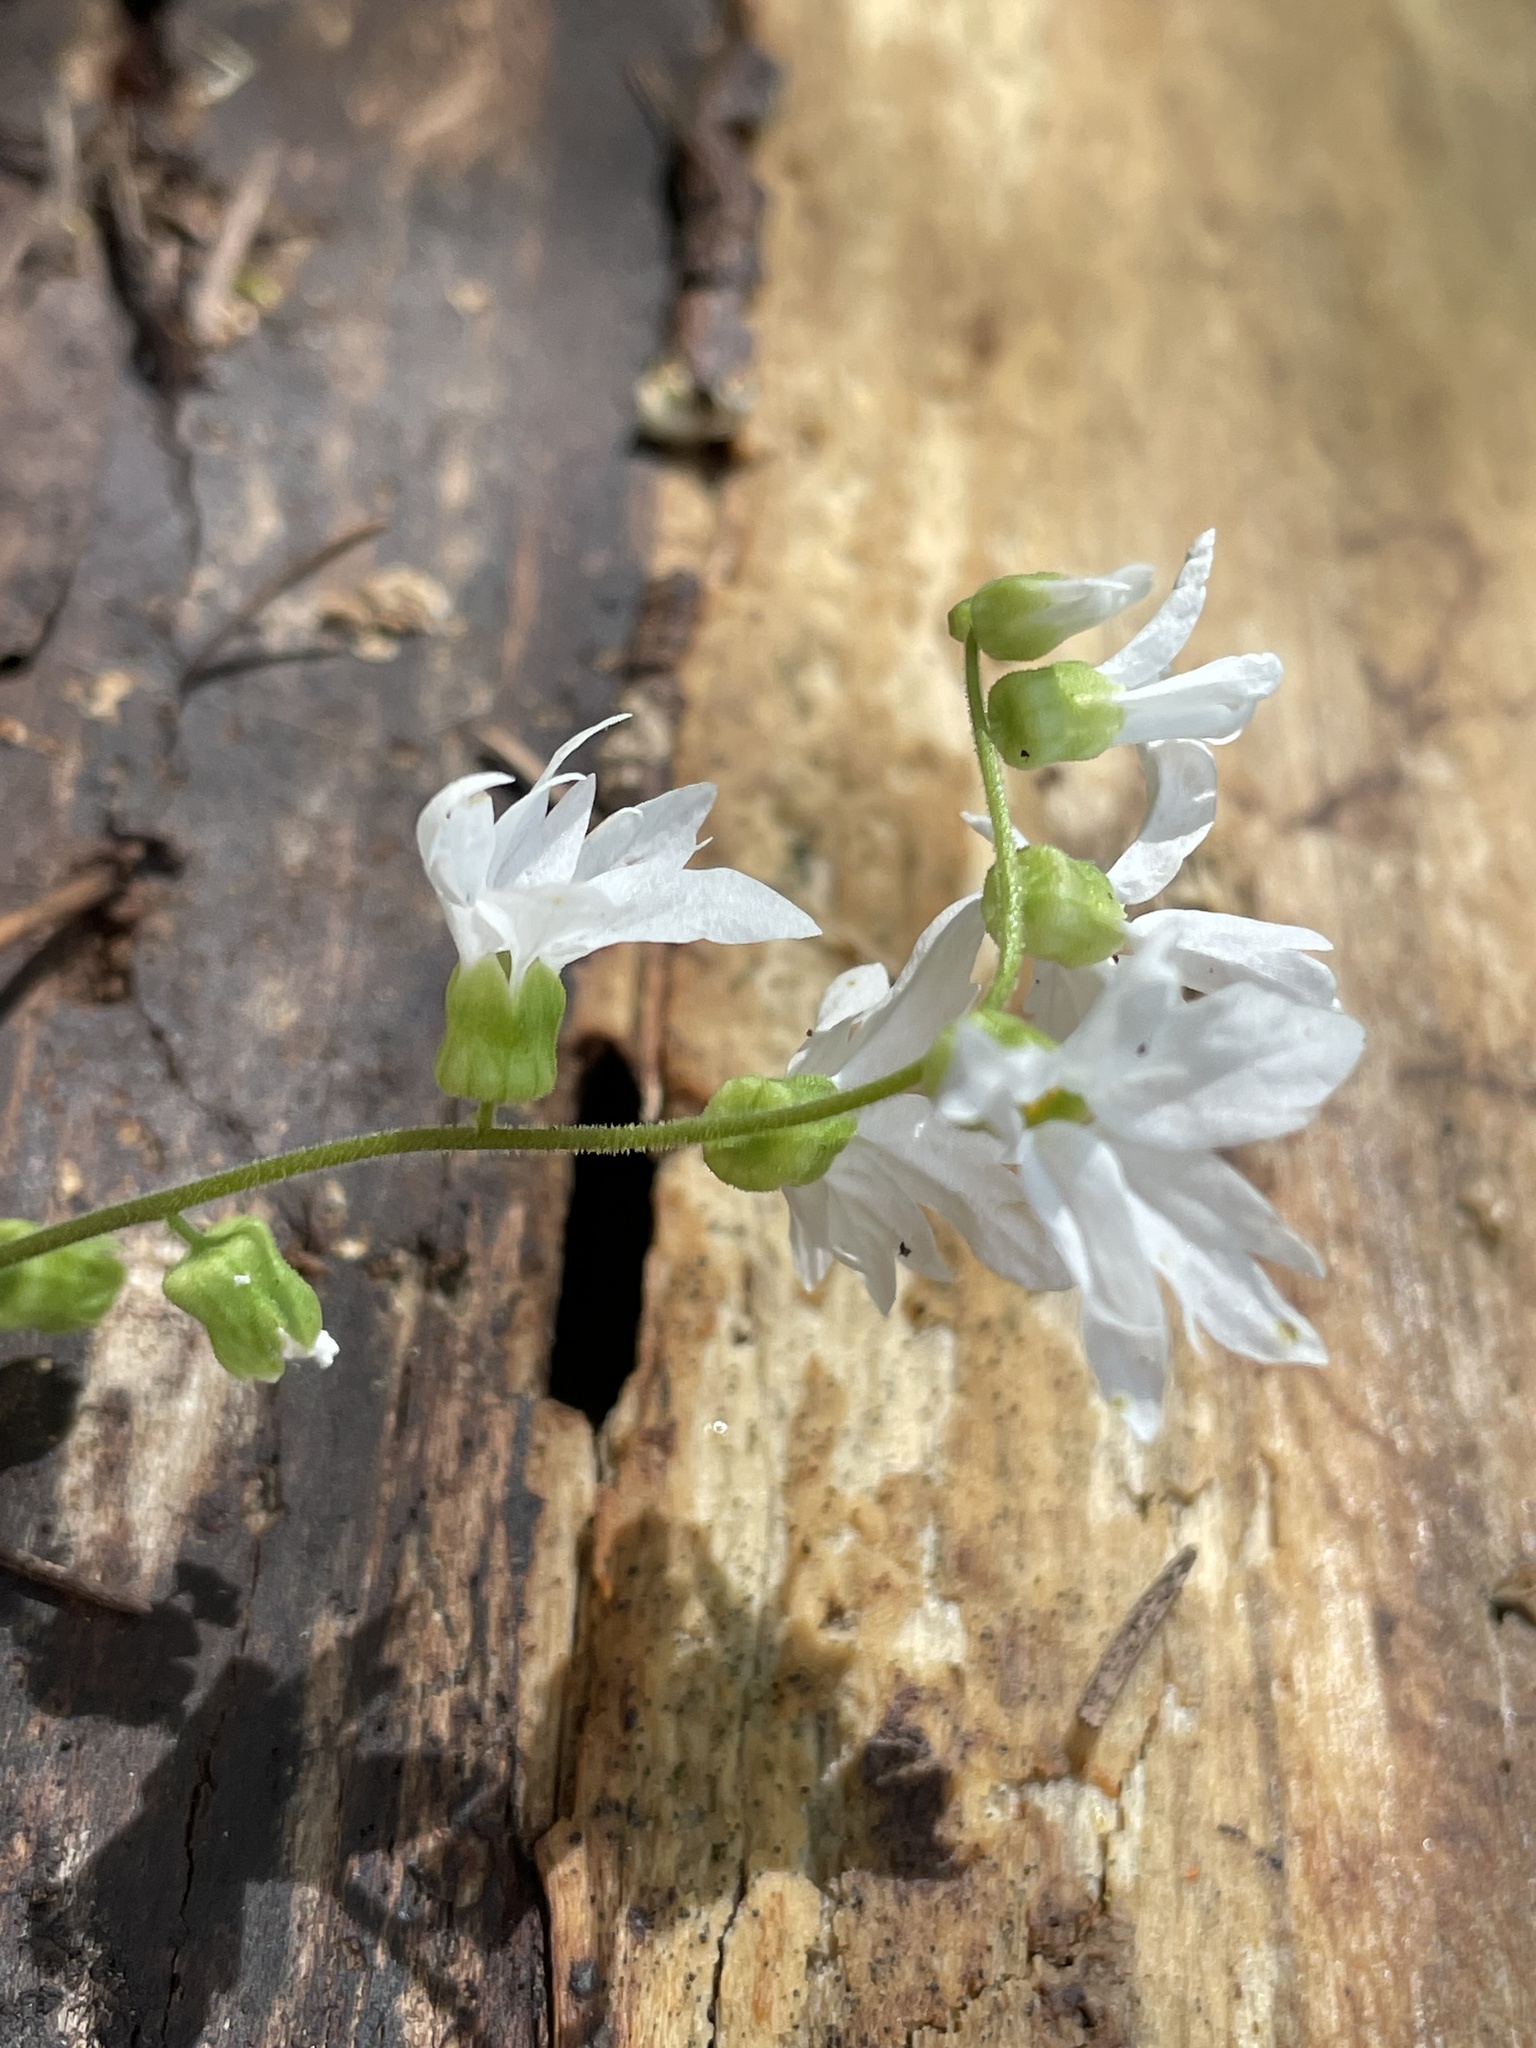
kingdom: Plantae
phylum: Tracheophyta
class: Magnoliopsida
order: Saxifragales
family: Saxifragaceae
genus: Lithophragma
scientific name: Lithophragma heterophyllum
